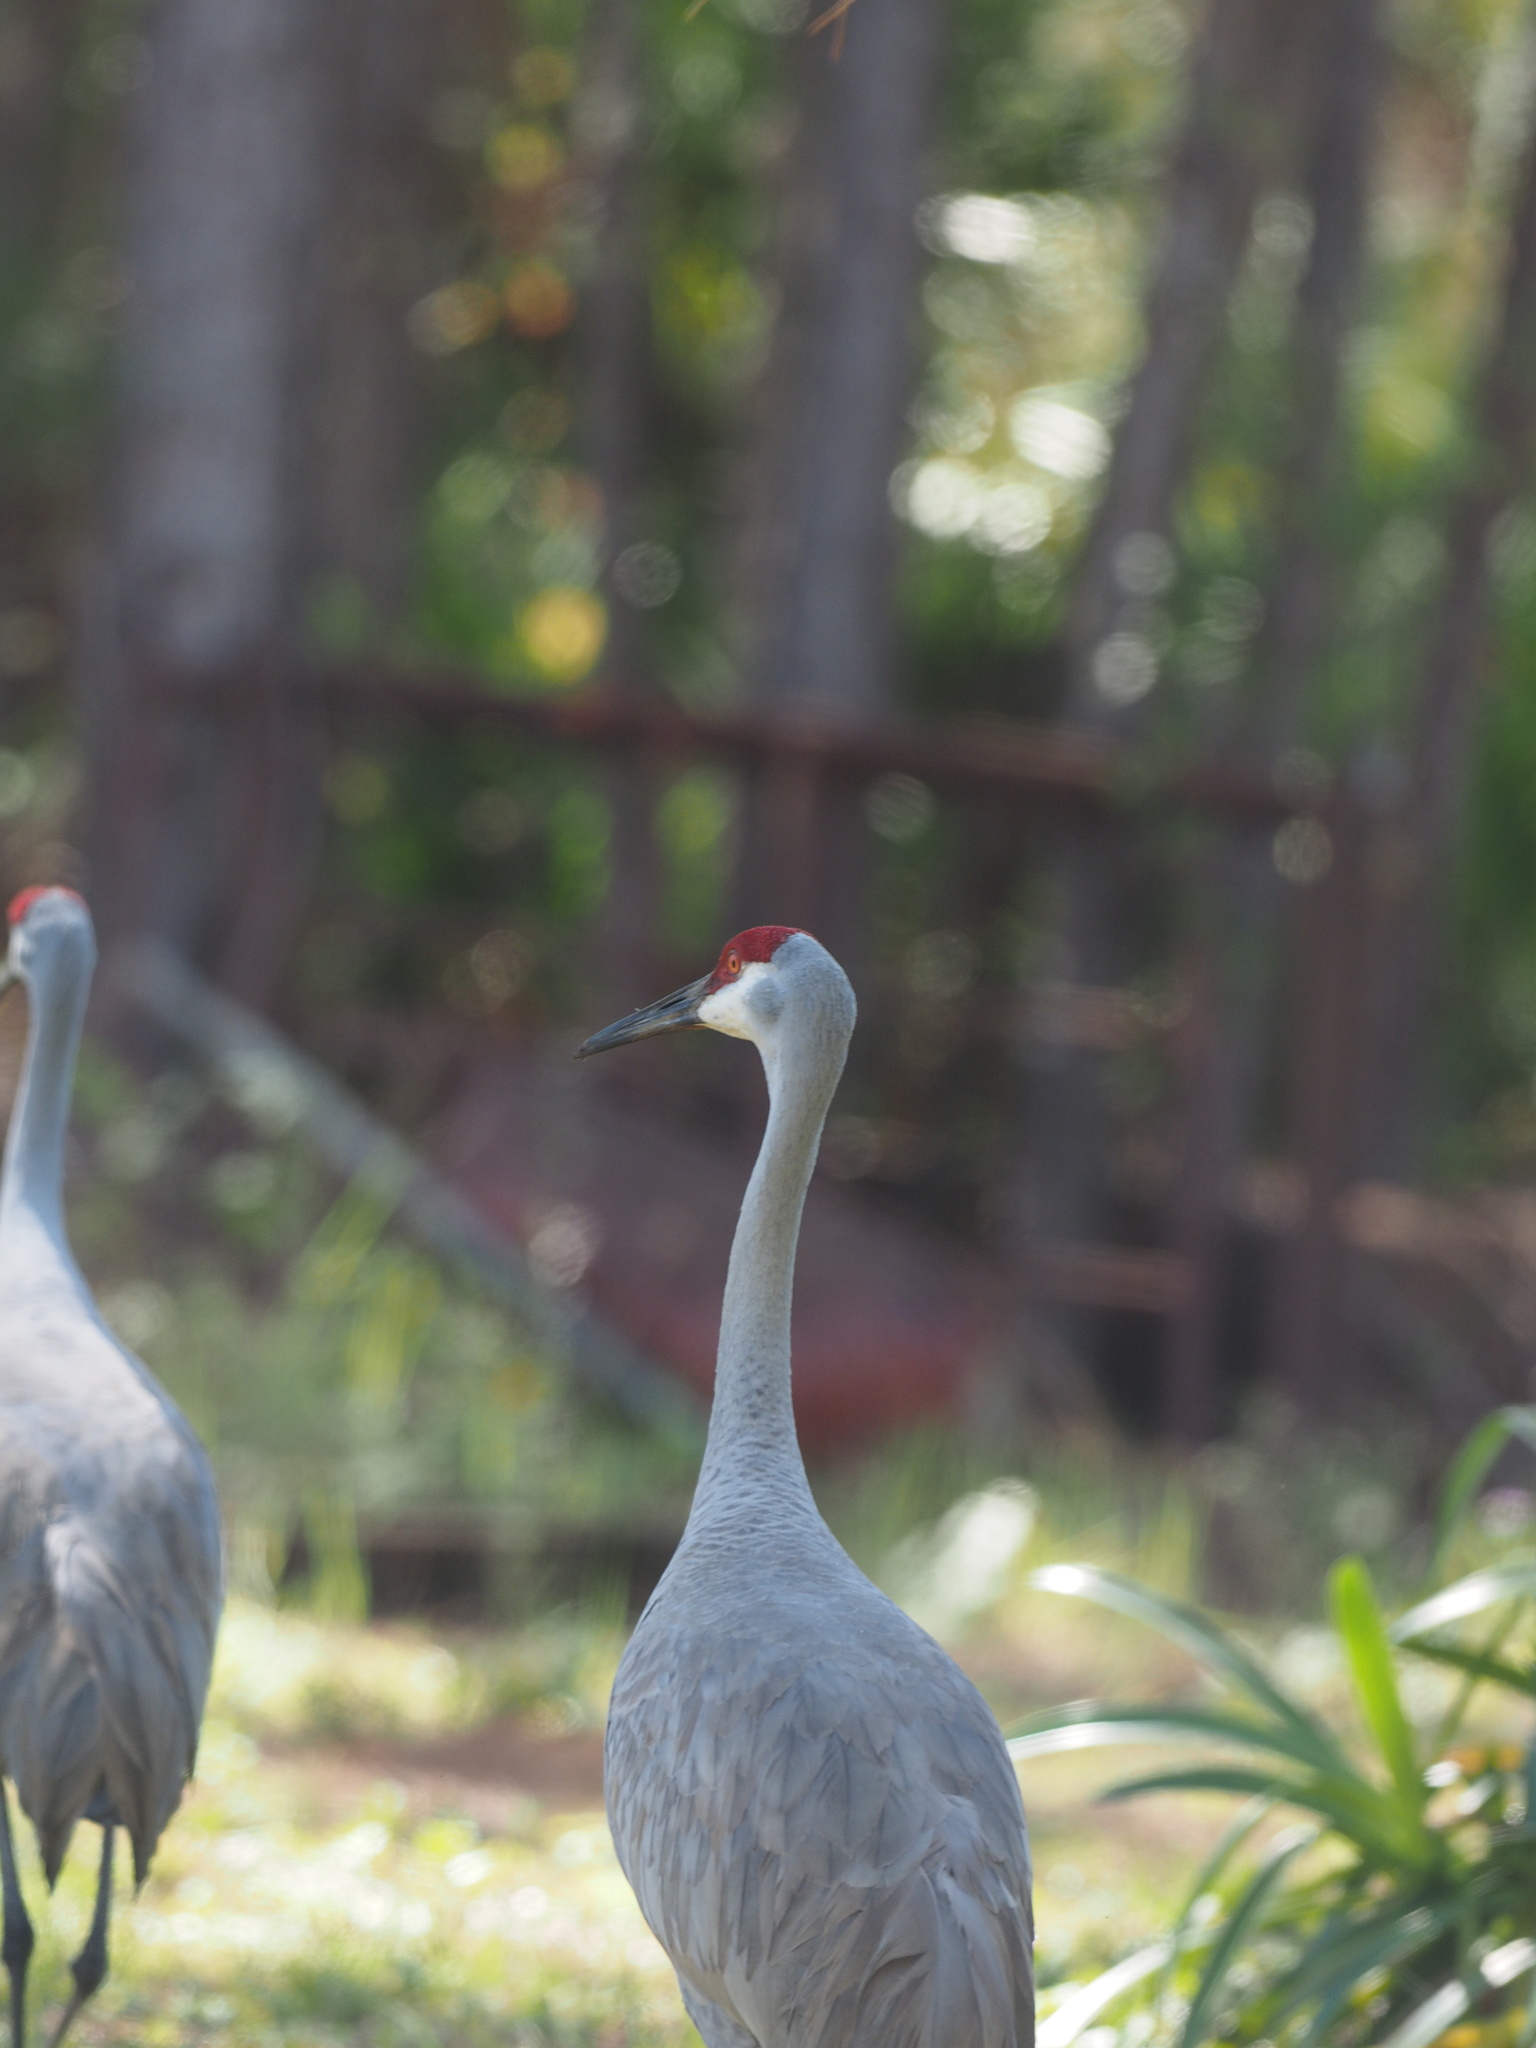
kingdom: Animalia
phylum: Chordata
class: Aves
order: Gruiformes
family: Gruidae
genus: Grus
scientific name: Grus canadensis
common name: Sandhill crane
